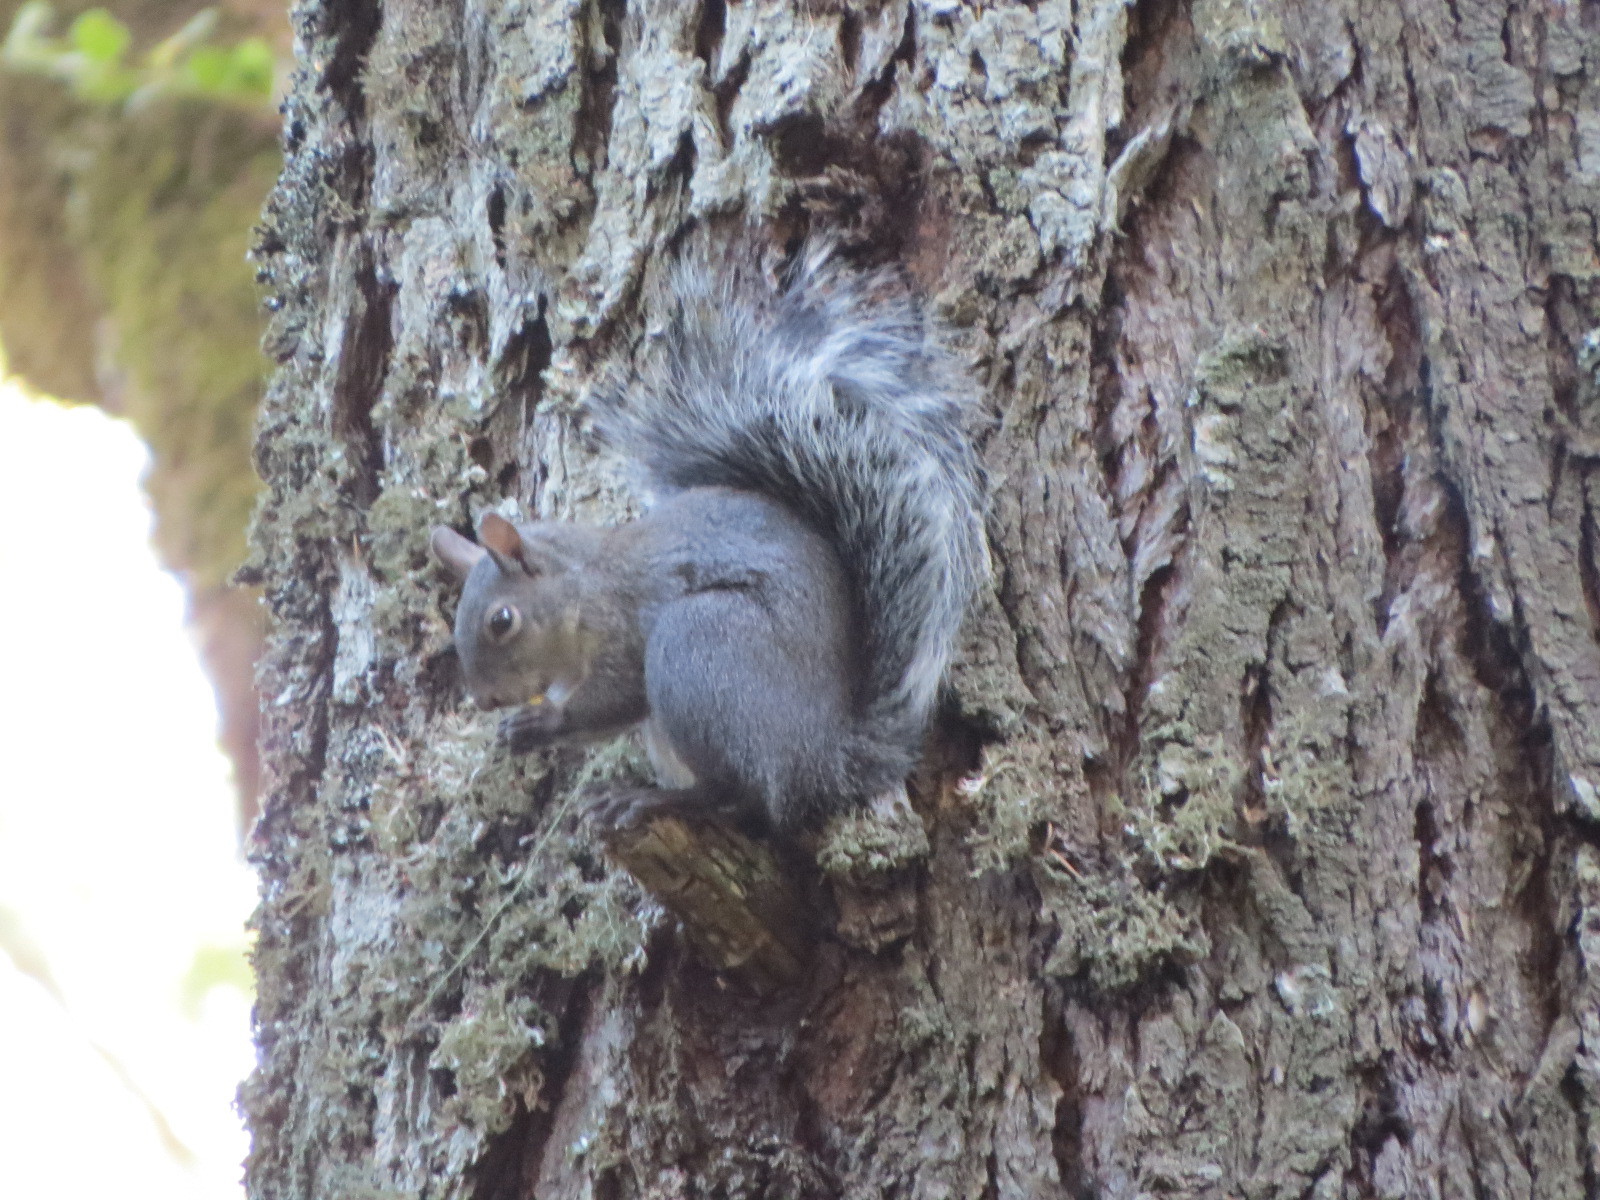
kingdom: Animalia
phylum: Chordata
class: Mammalia
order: Rodentia
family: Sciuridae
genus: Sciurus
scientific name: Sciurus griseus
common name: Western gray squirrel
